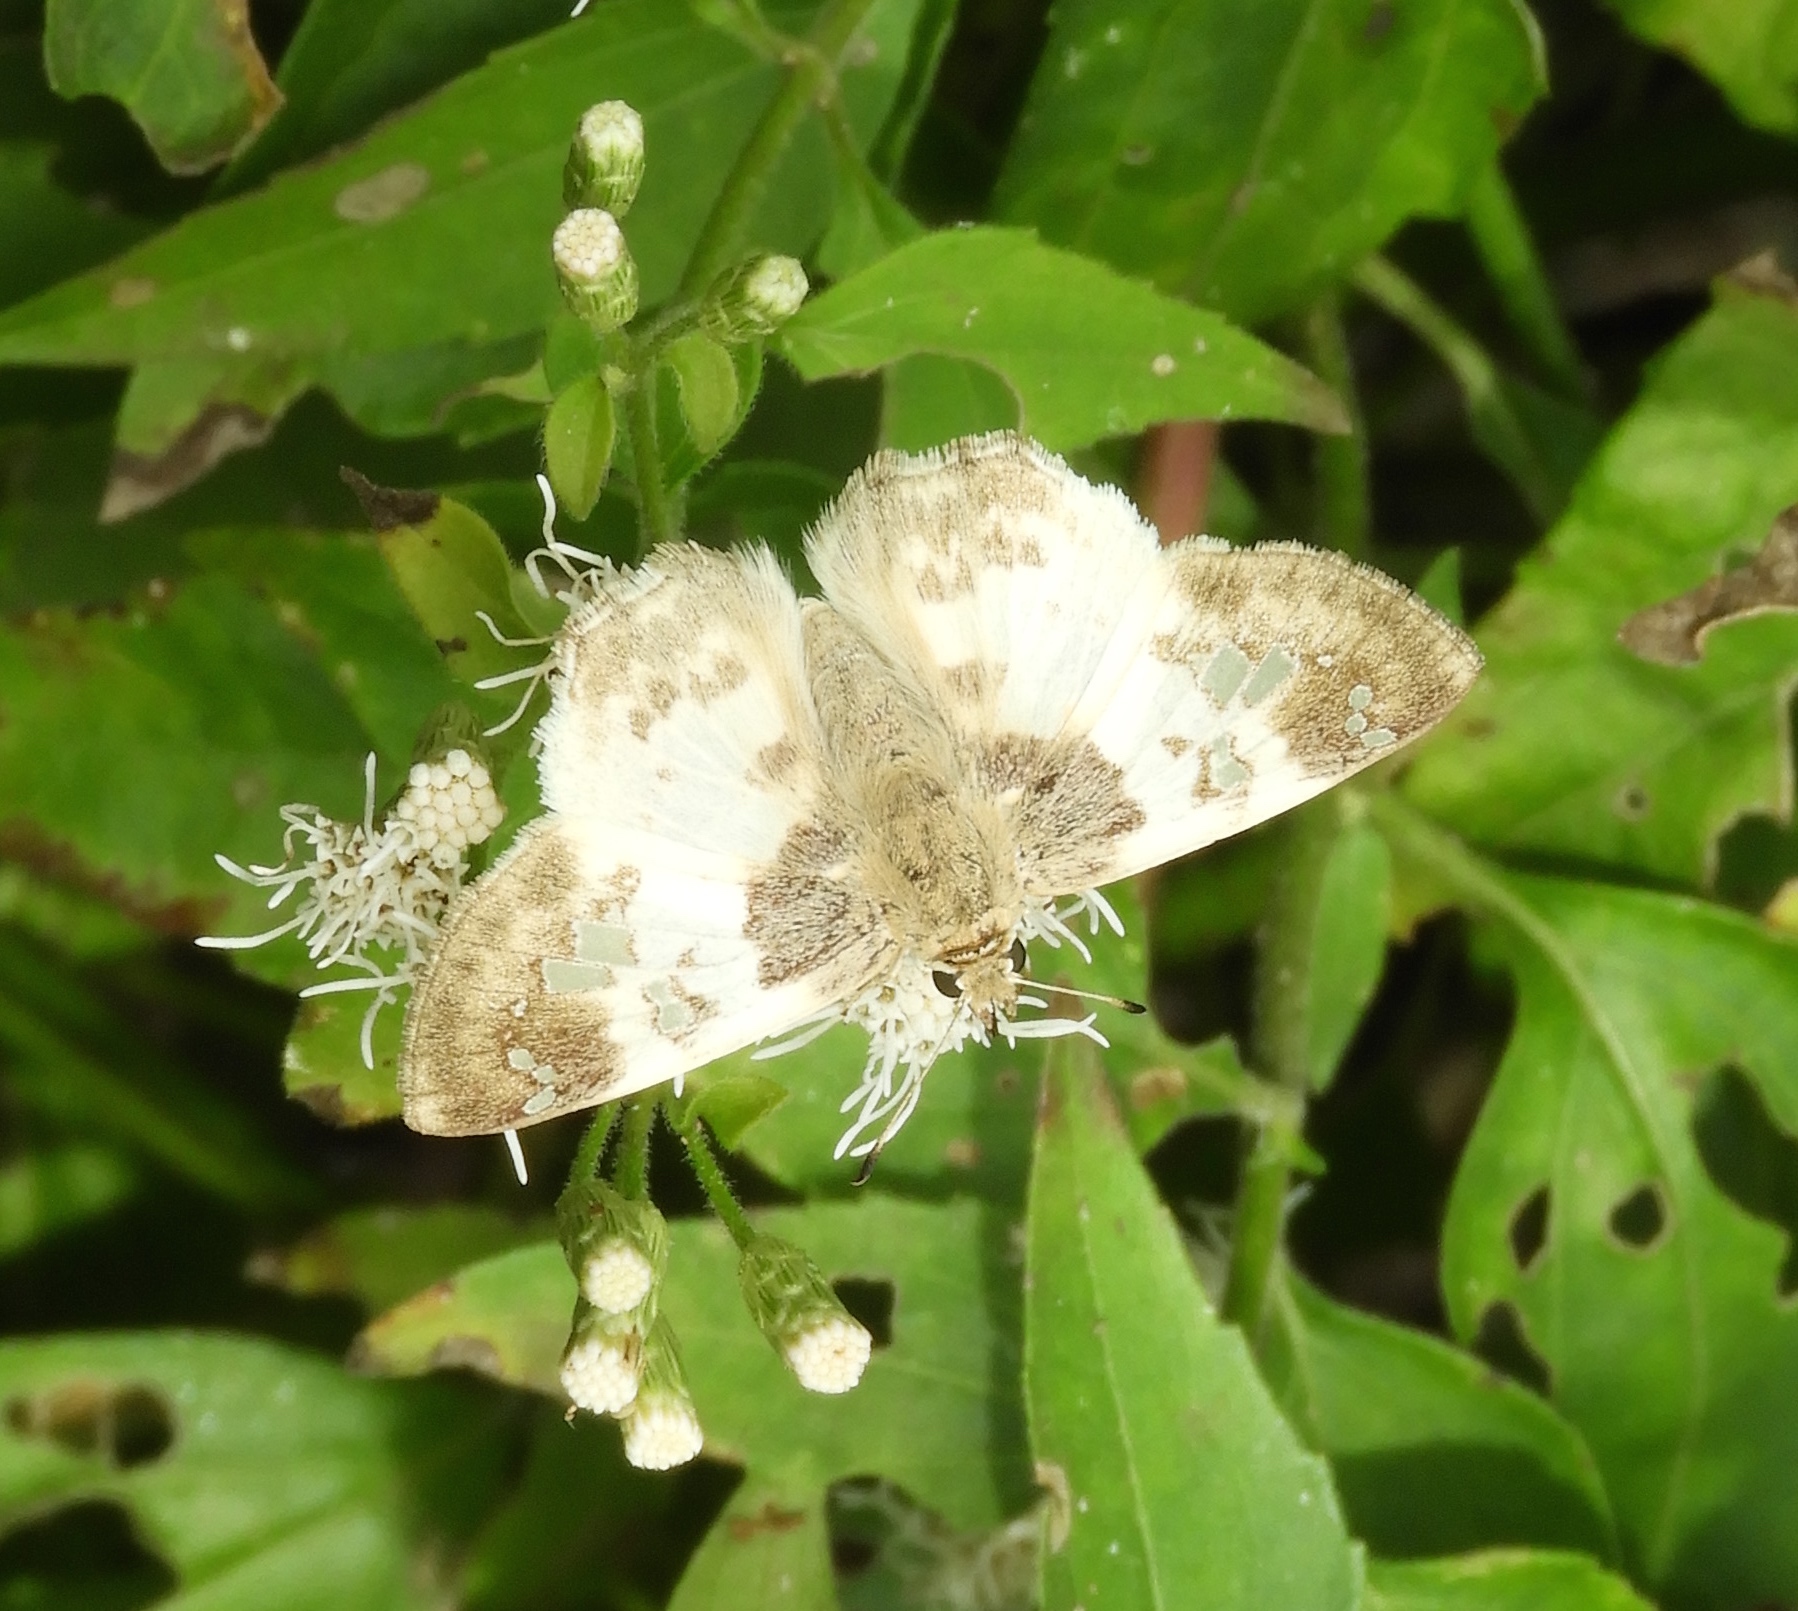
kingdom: Animalia
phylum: Arthropoda
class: Insecta
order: Lepidoptera
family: Hesperiidae
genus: Polyctor
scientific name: Polyctor cleta
